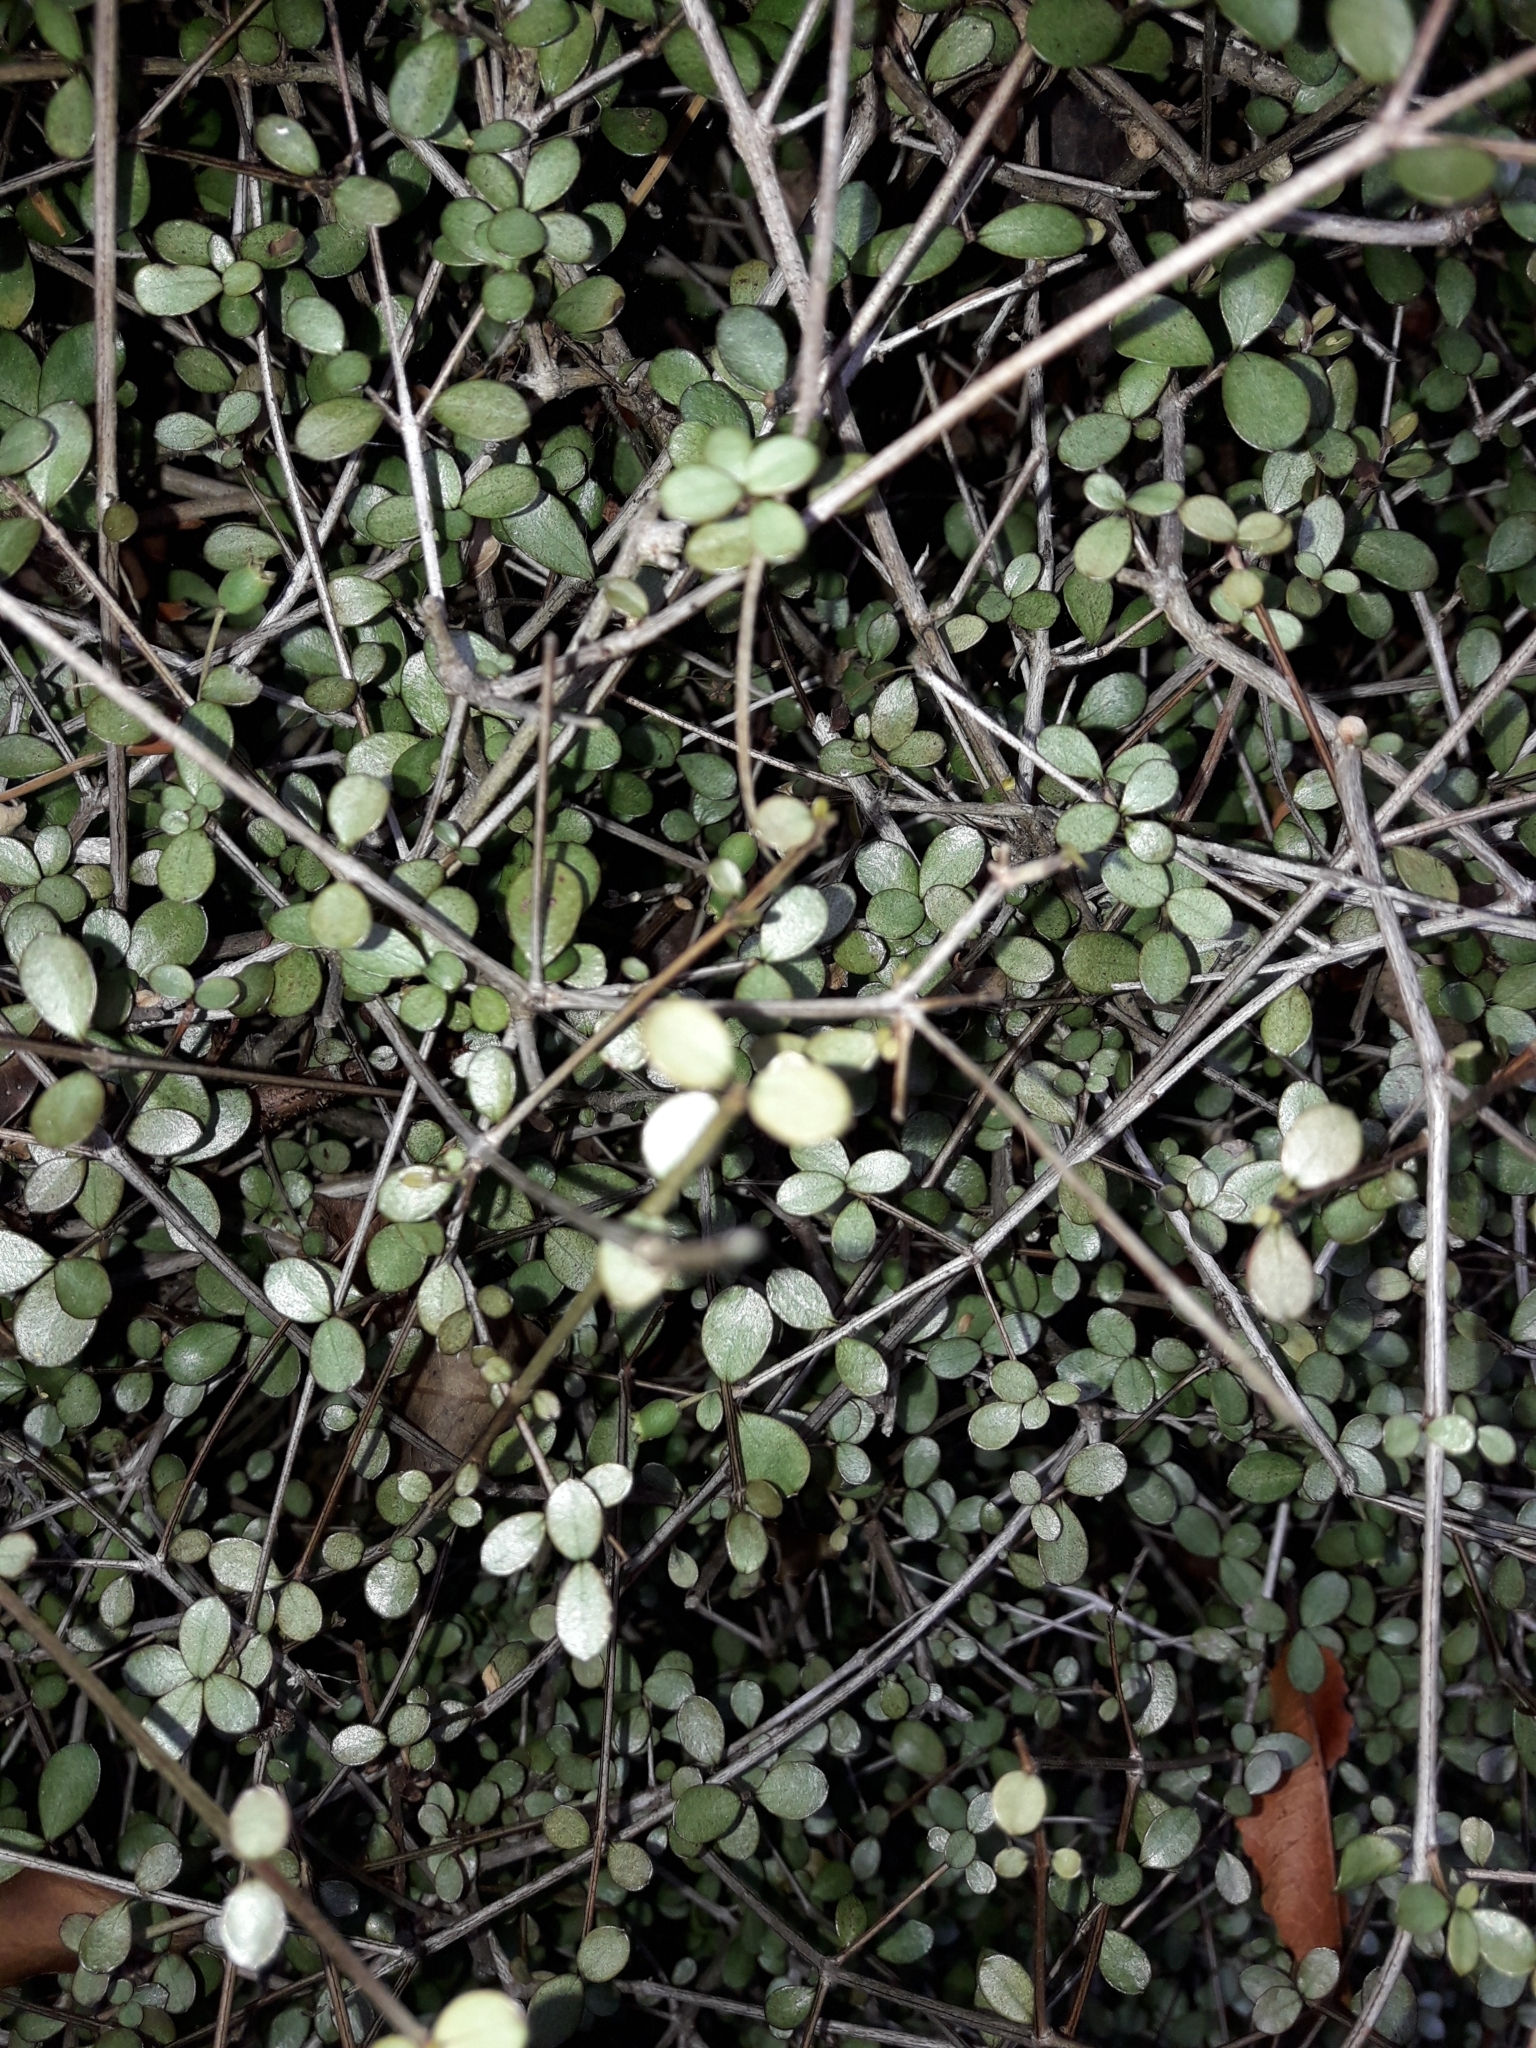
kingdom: Plantae
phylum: Tracheophyta
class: Magnoliopsida
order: Myrtales
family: Myrtaceae
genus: Neomyrtus
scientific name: Neomyrtus pedunculata
